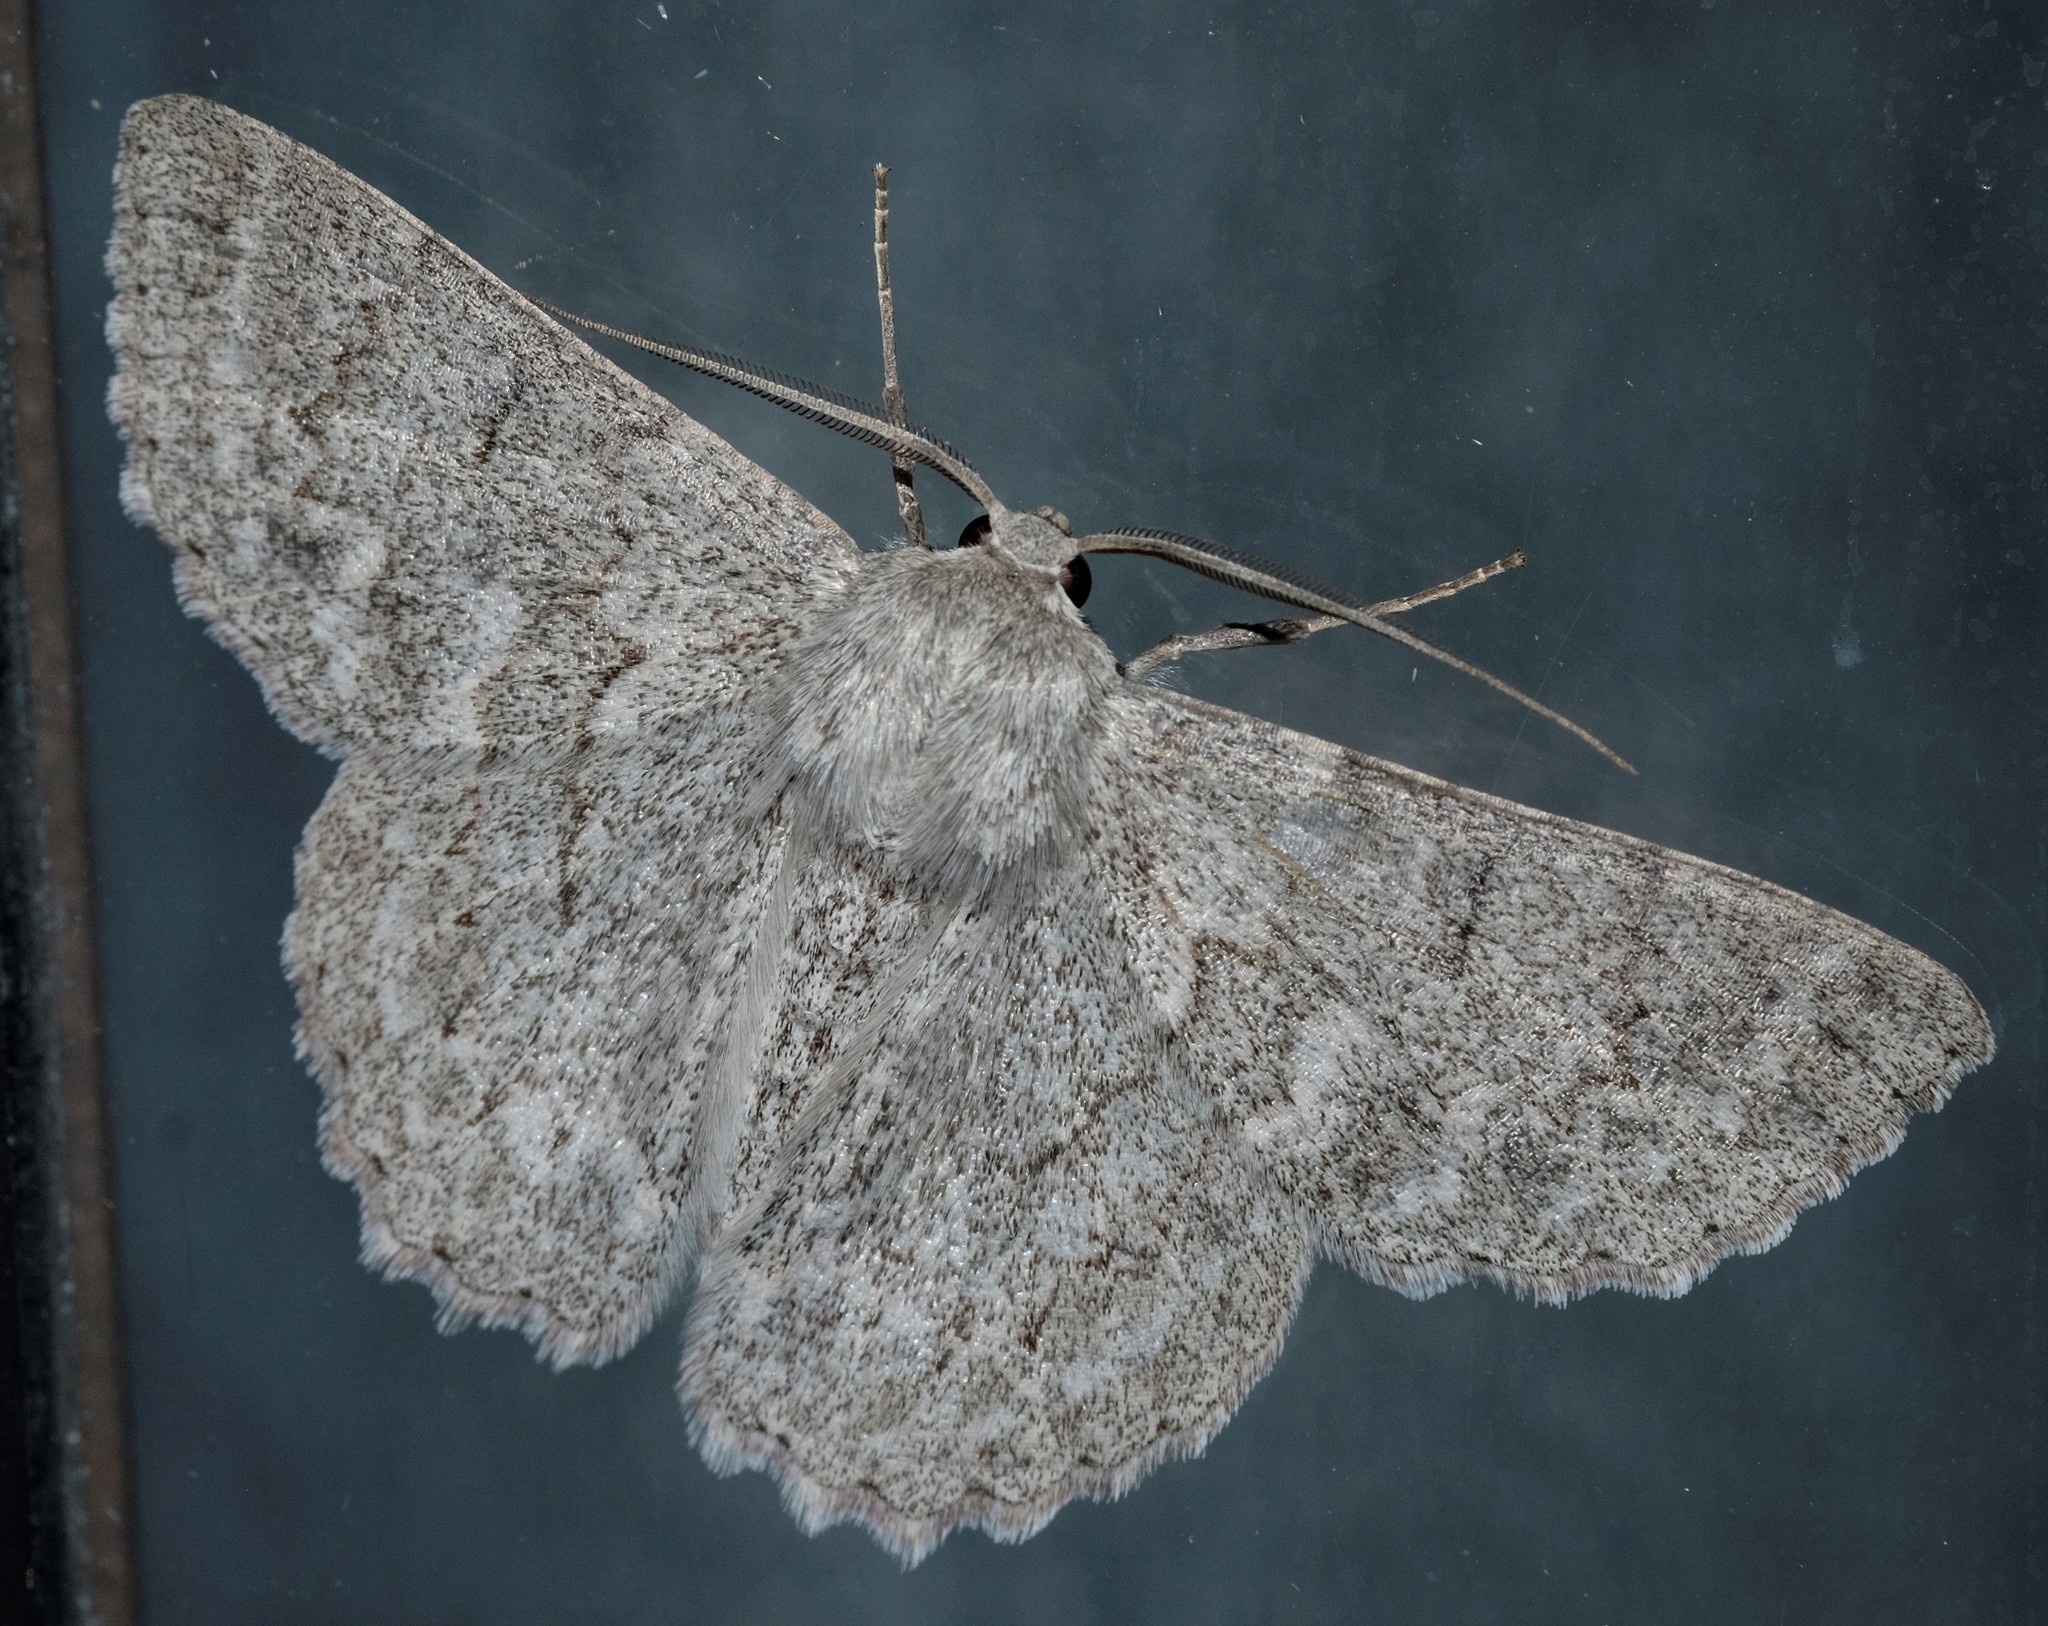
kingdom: Animalia
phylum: Arthropoda
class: Insecta
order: Lepidoptera
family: Geometridae
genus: Crypsiphona
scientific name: Crypsiphona ocultaria
